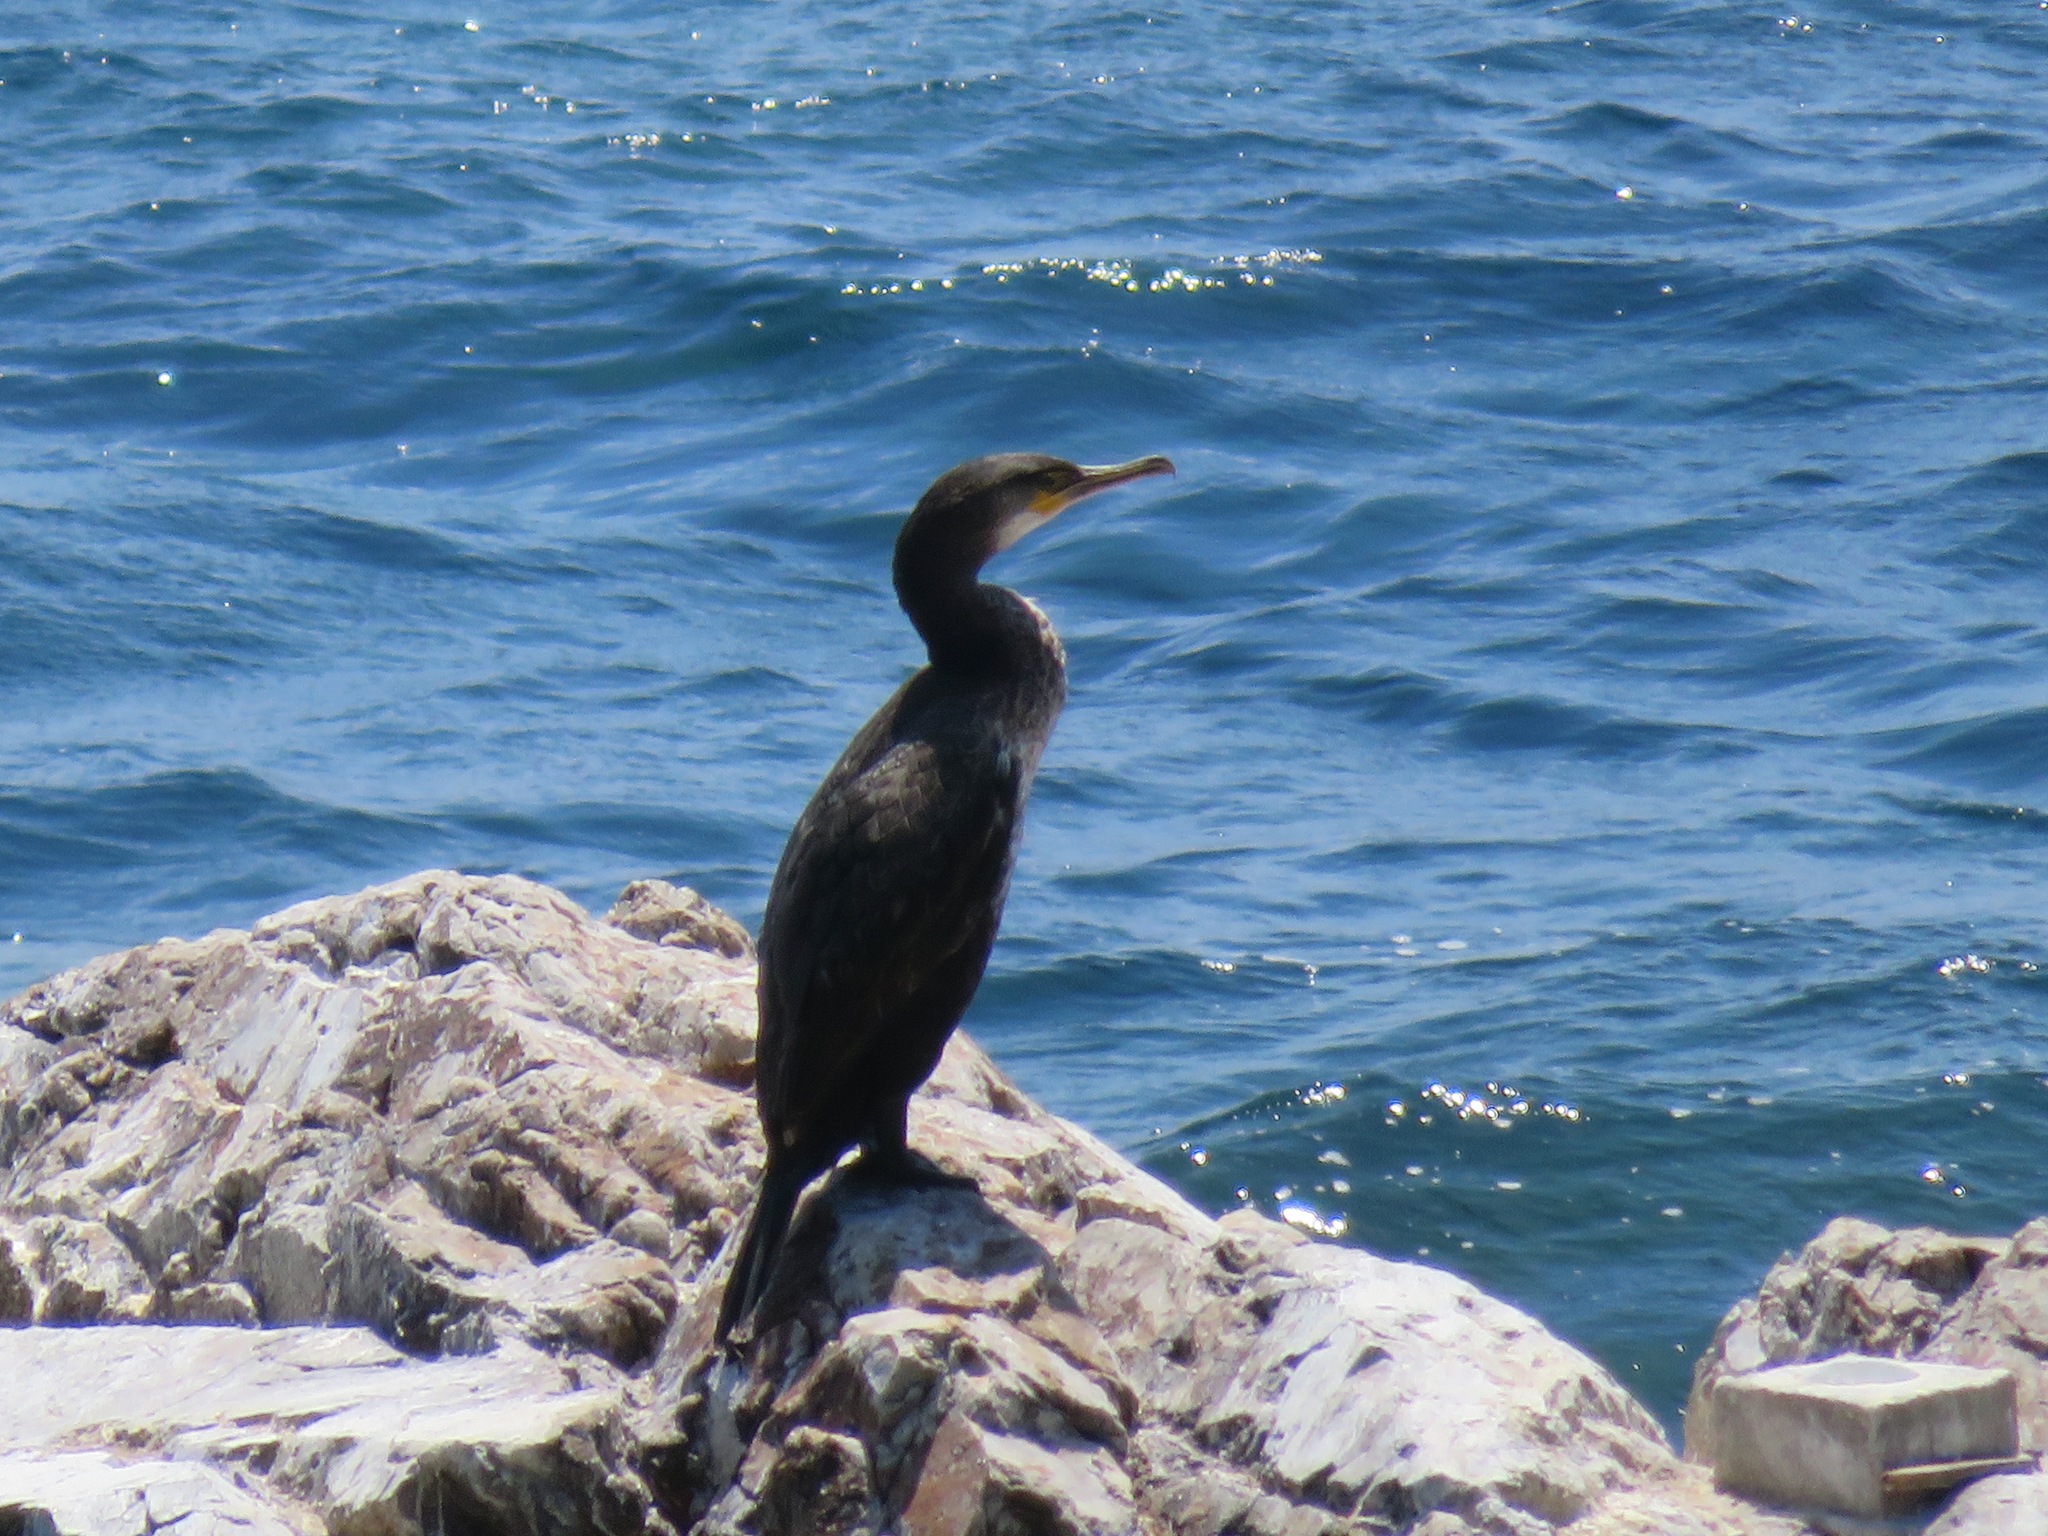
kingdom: Animalia
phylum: Chordata
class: Aves
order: Suliformes
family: Phalacrocoracidae
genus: Phalacrocorax
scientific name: Phalacrocorax capillatus
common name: Japanese cormorant
